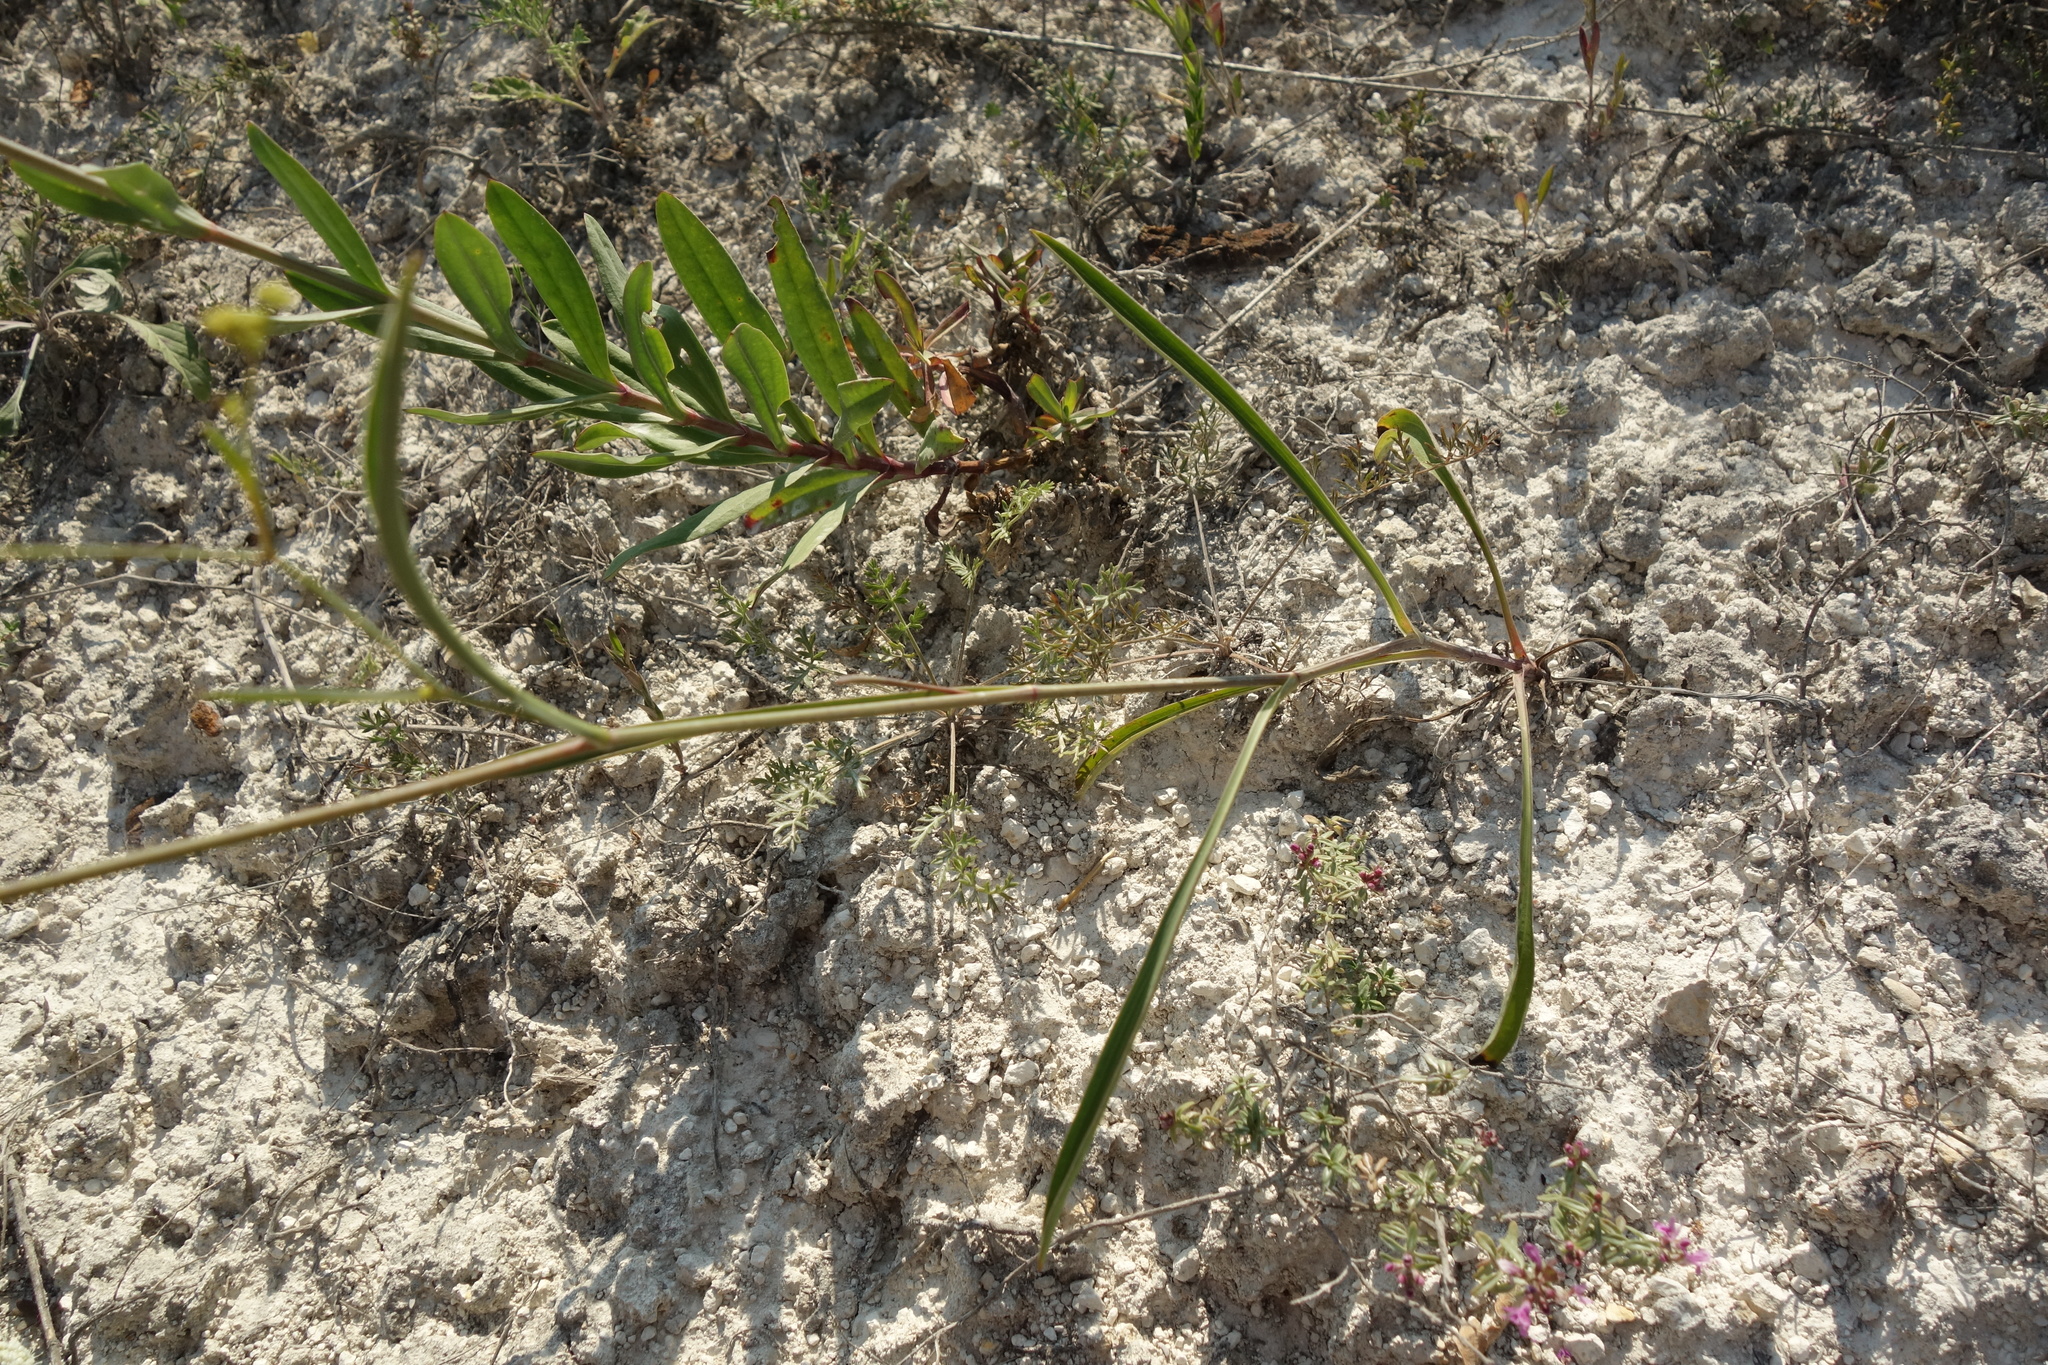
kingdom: Plantae
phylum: Tracheophyta
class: Magnoliopsida
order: Apiales
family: Apiaceae
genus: Bupleurum
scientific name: Bupleurum falcatum
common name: Sickle-leaved hare's-ear
